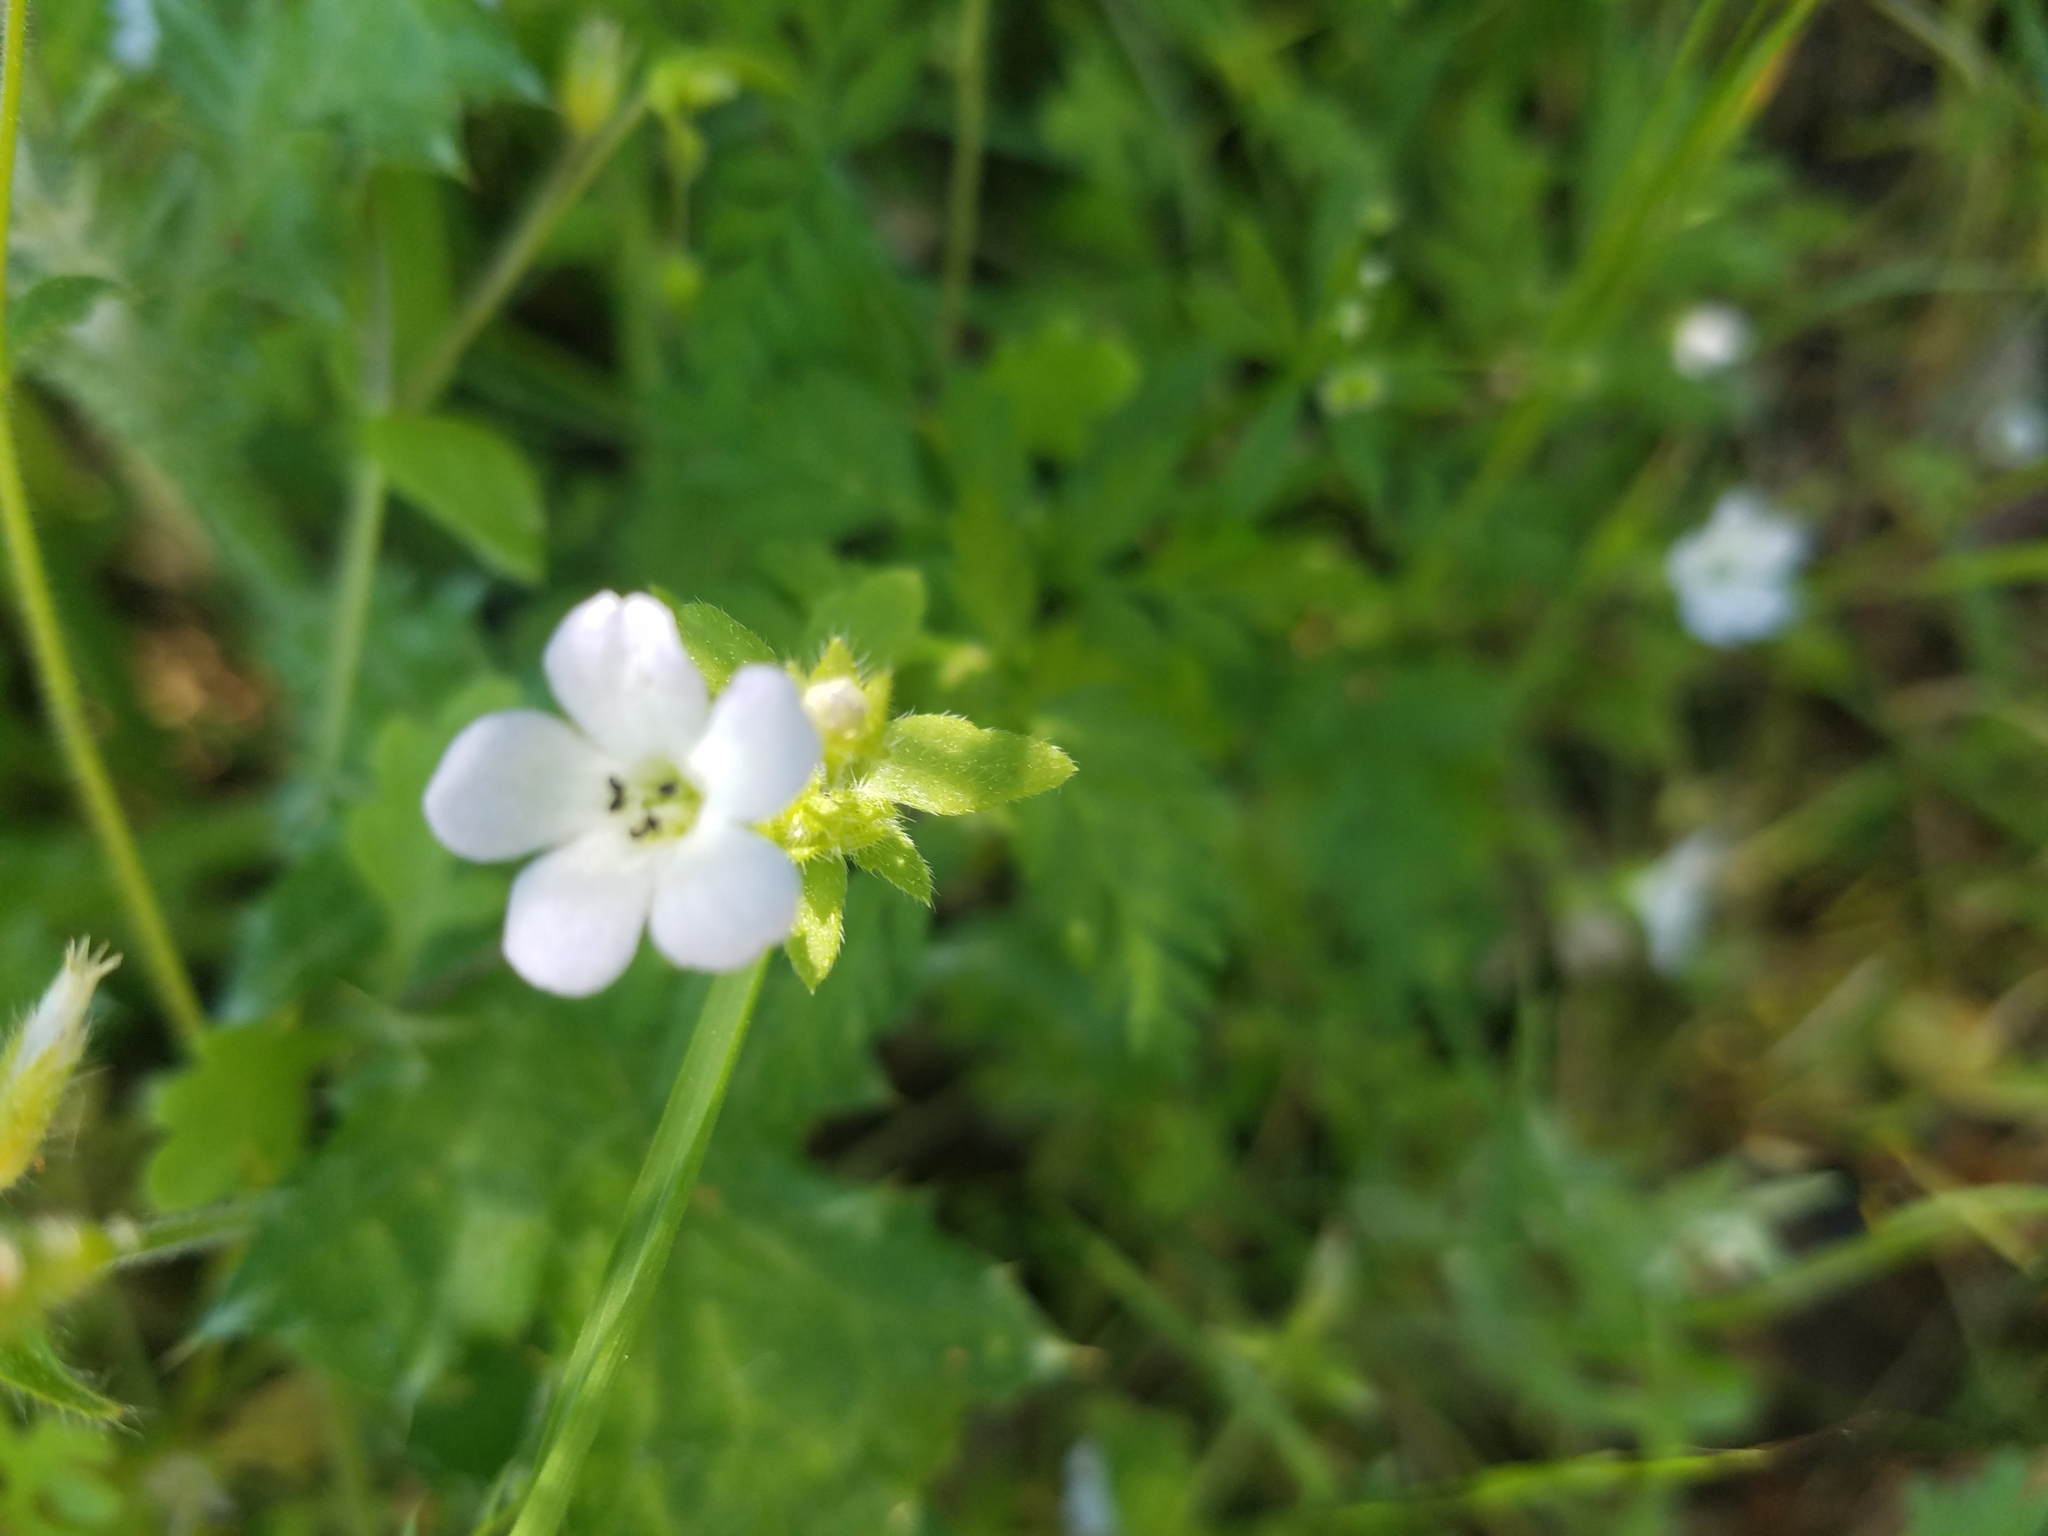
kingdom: Plantae
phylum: Tracheophyta
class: Magnoliopsida
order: Boraginales
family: Hydrophyllaceae
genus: Nemophila
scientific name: Nemophila heterophylla
